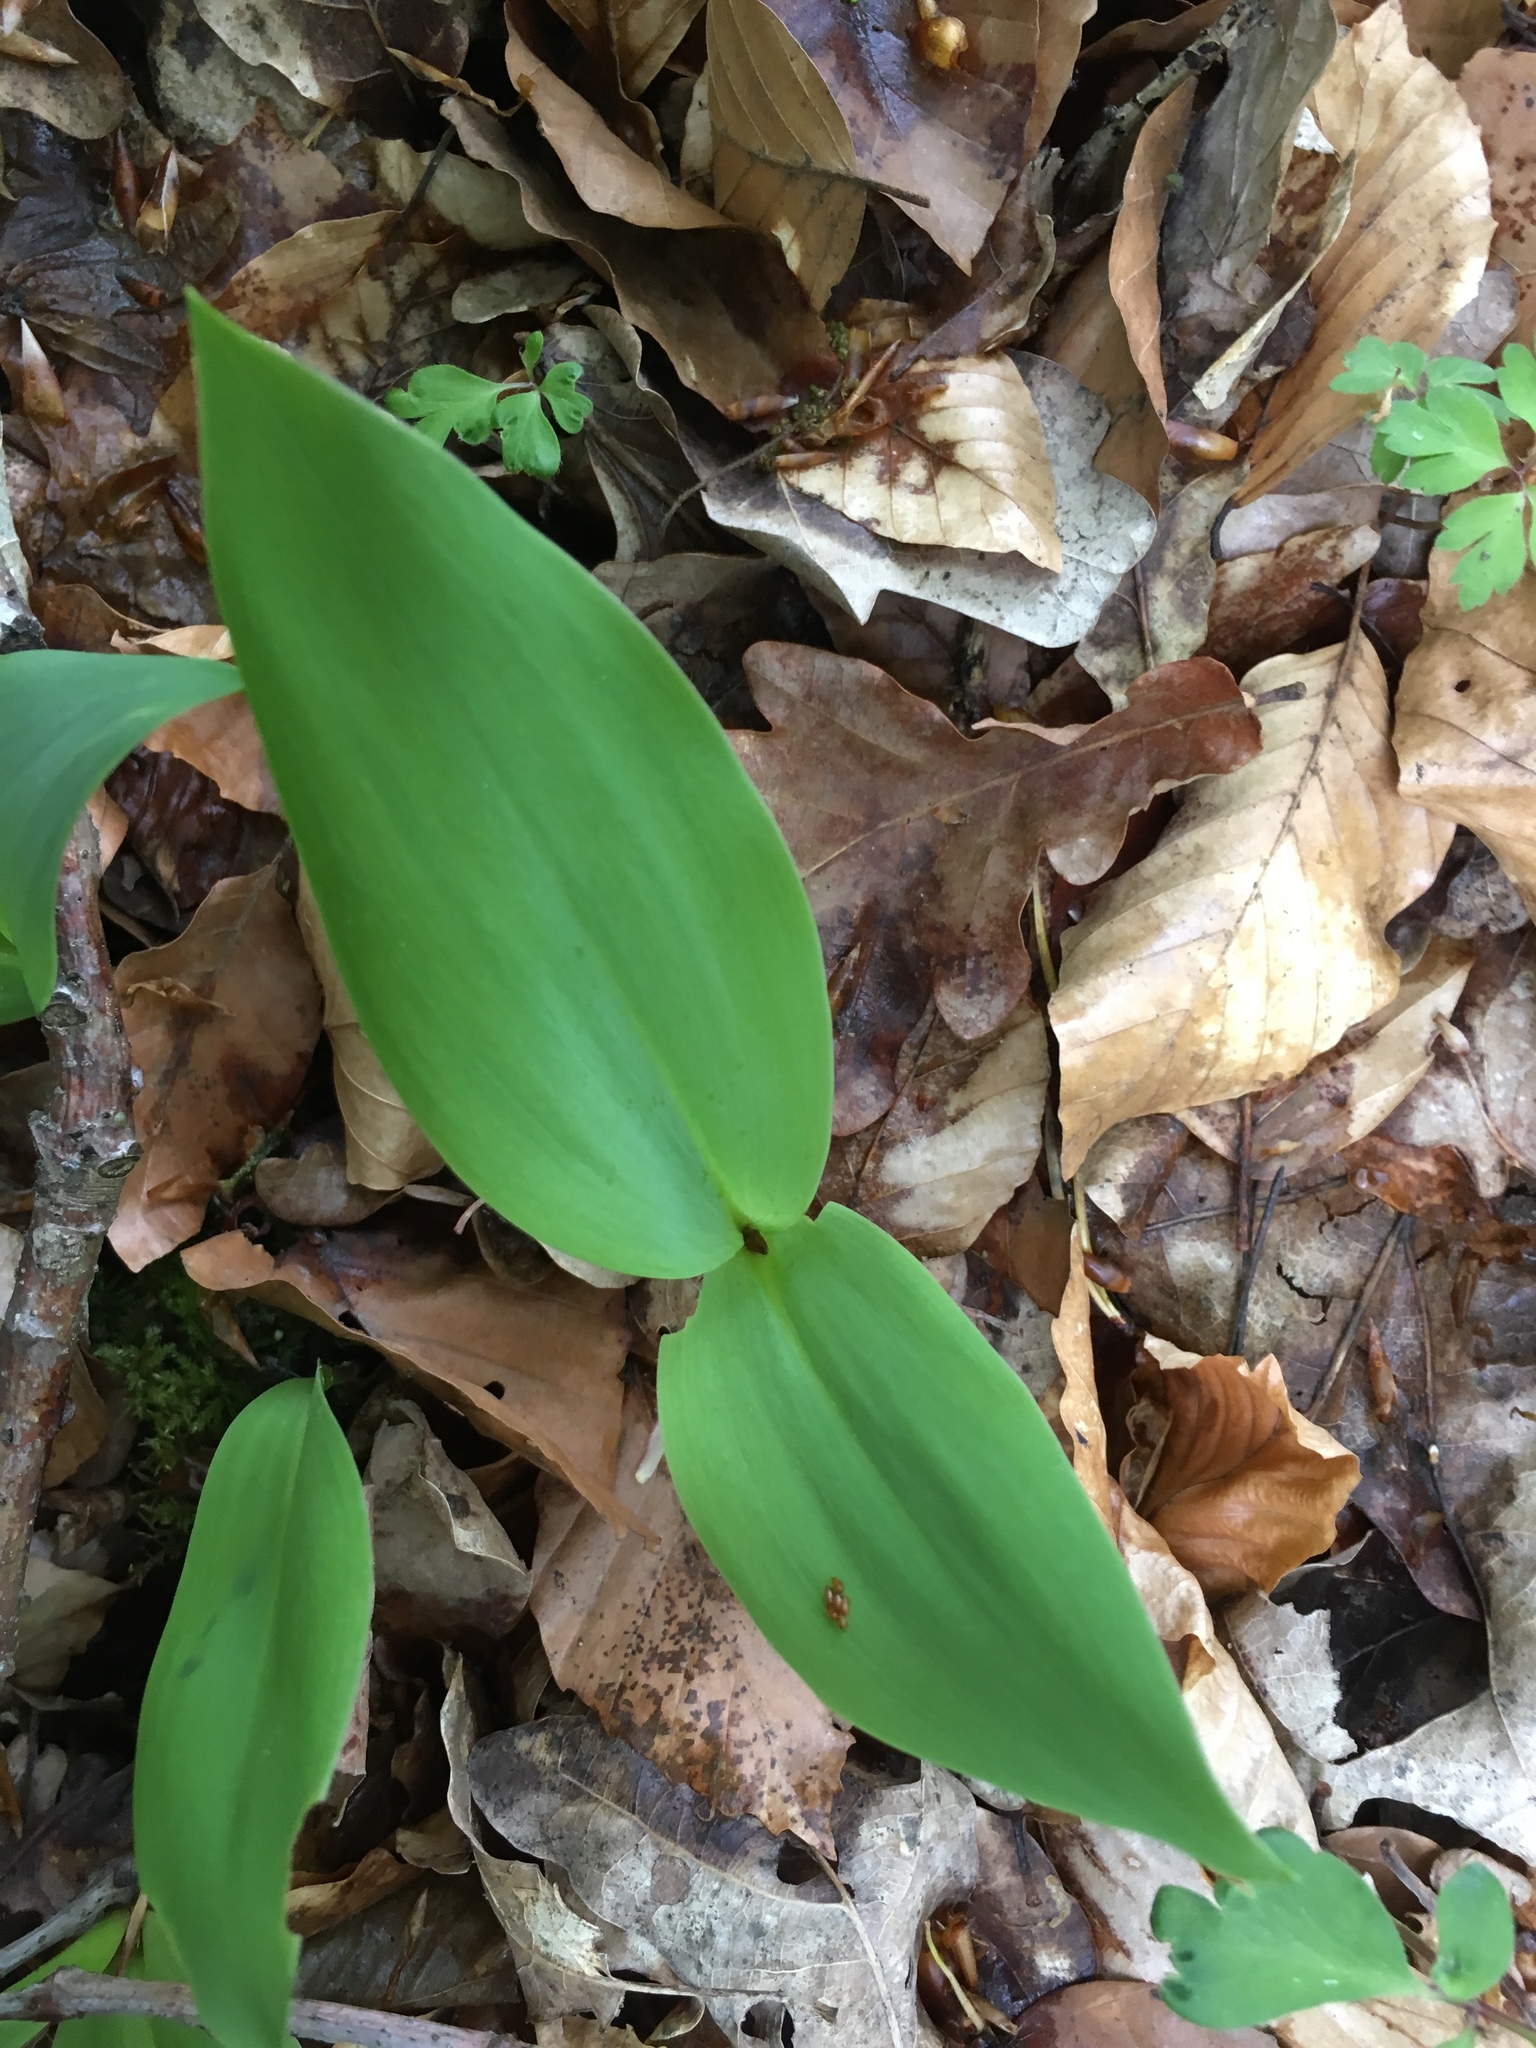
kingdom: Plantae
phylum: Tracheophyta
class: Liliopsida
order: Asparagales
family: Asparagaceae
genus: Convallaria
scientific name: Convallaria majalis
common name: Lily-of-the-valley
